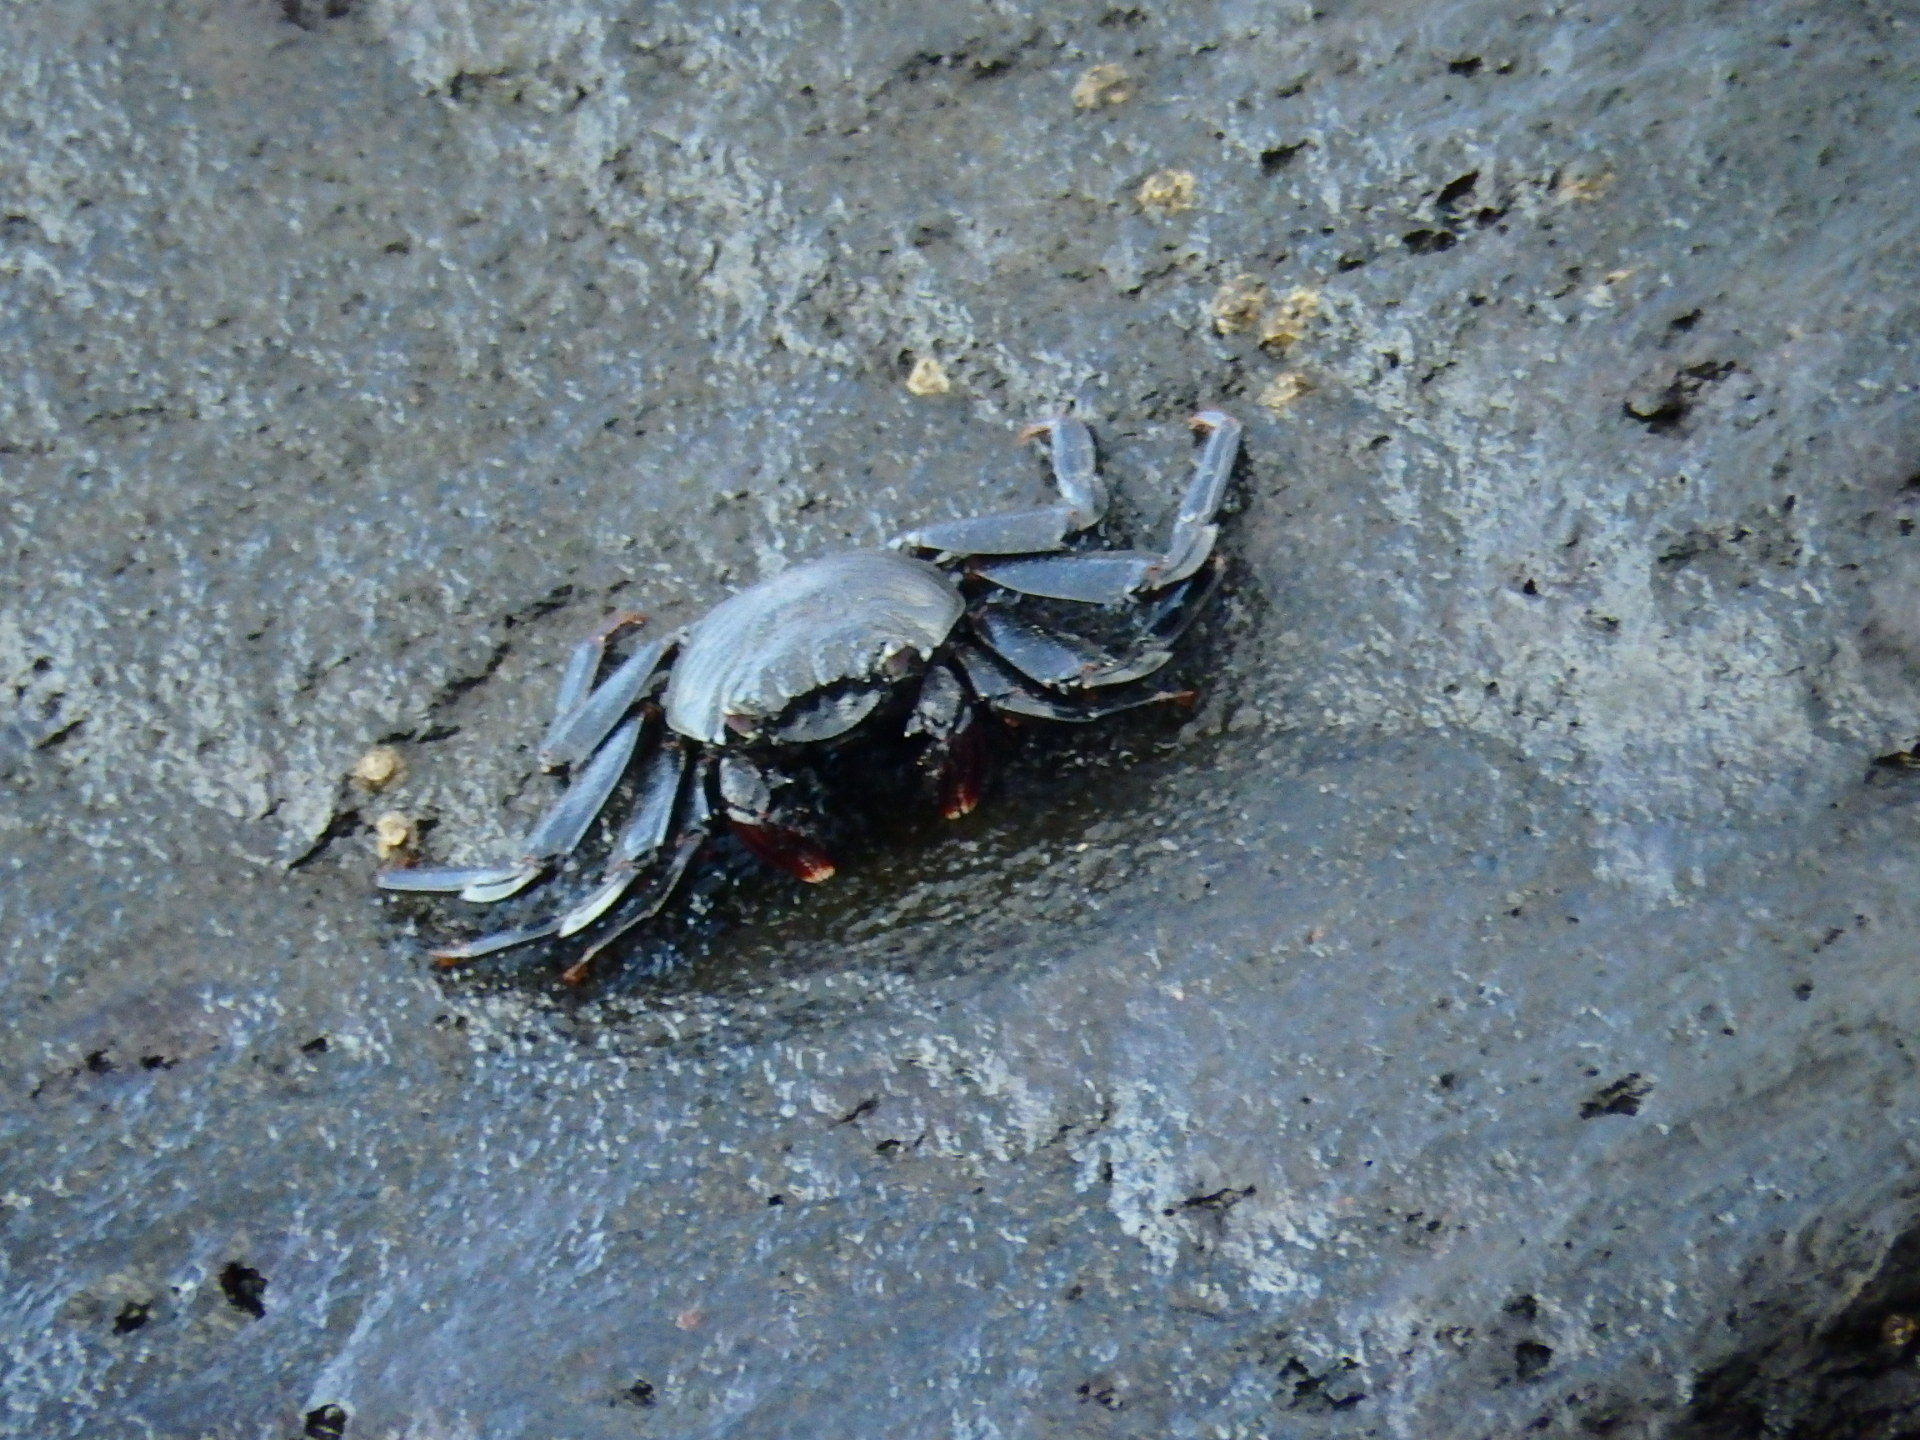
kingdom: Animalia
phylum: Arthropoda
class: Malacostraca
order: Decapoda
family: Grapsidae
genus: Grapsus
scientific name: Grapsus adscensionis
